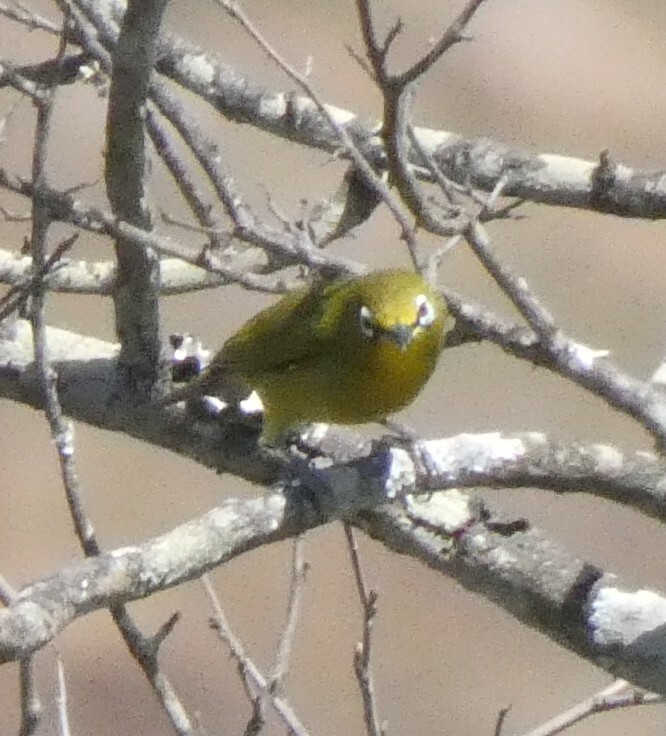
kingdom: Animalia
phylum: Chordata
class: Aves
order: Passeriformes
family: Zosteropidae
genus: Zosterops
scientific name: Zosterops virens
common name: Cape white-eye
